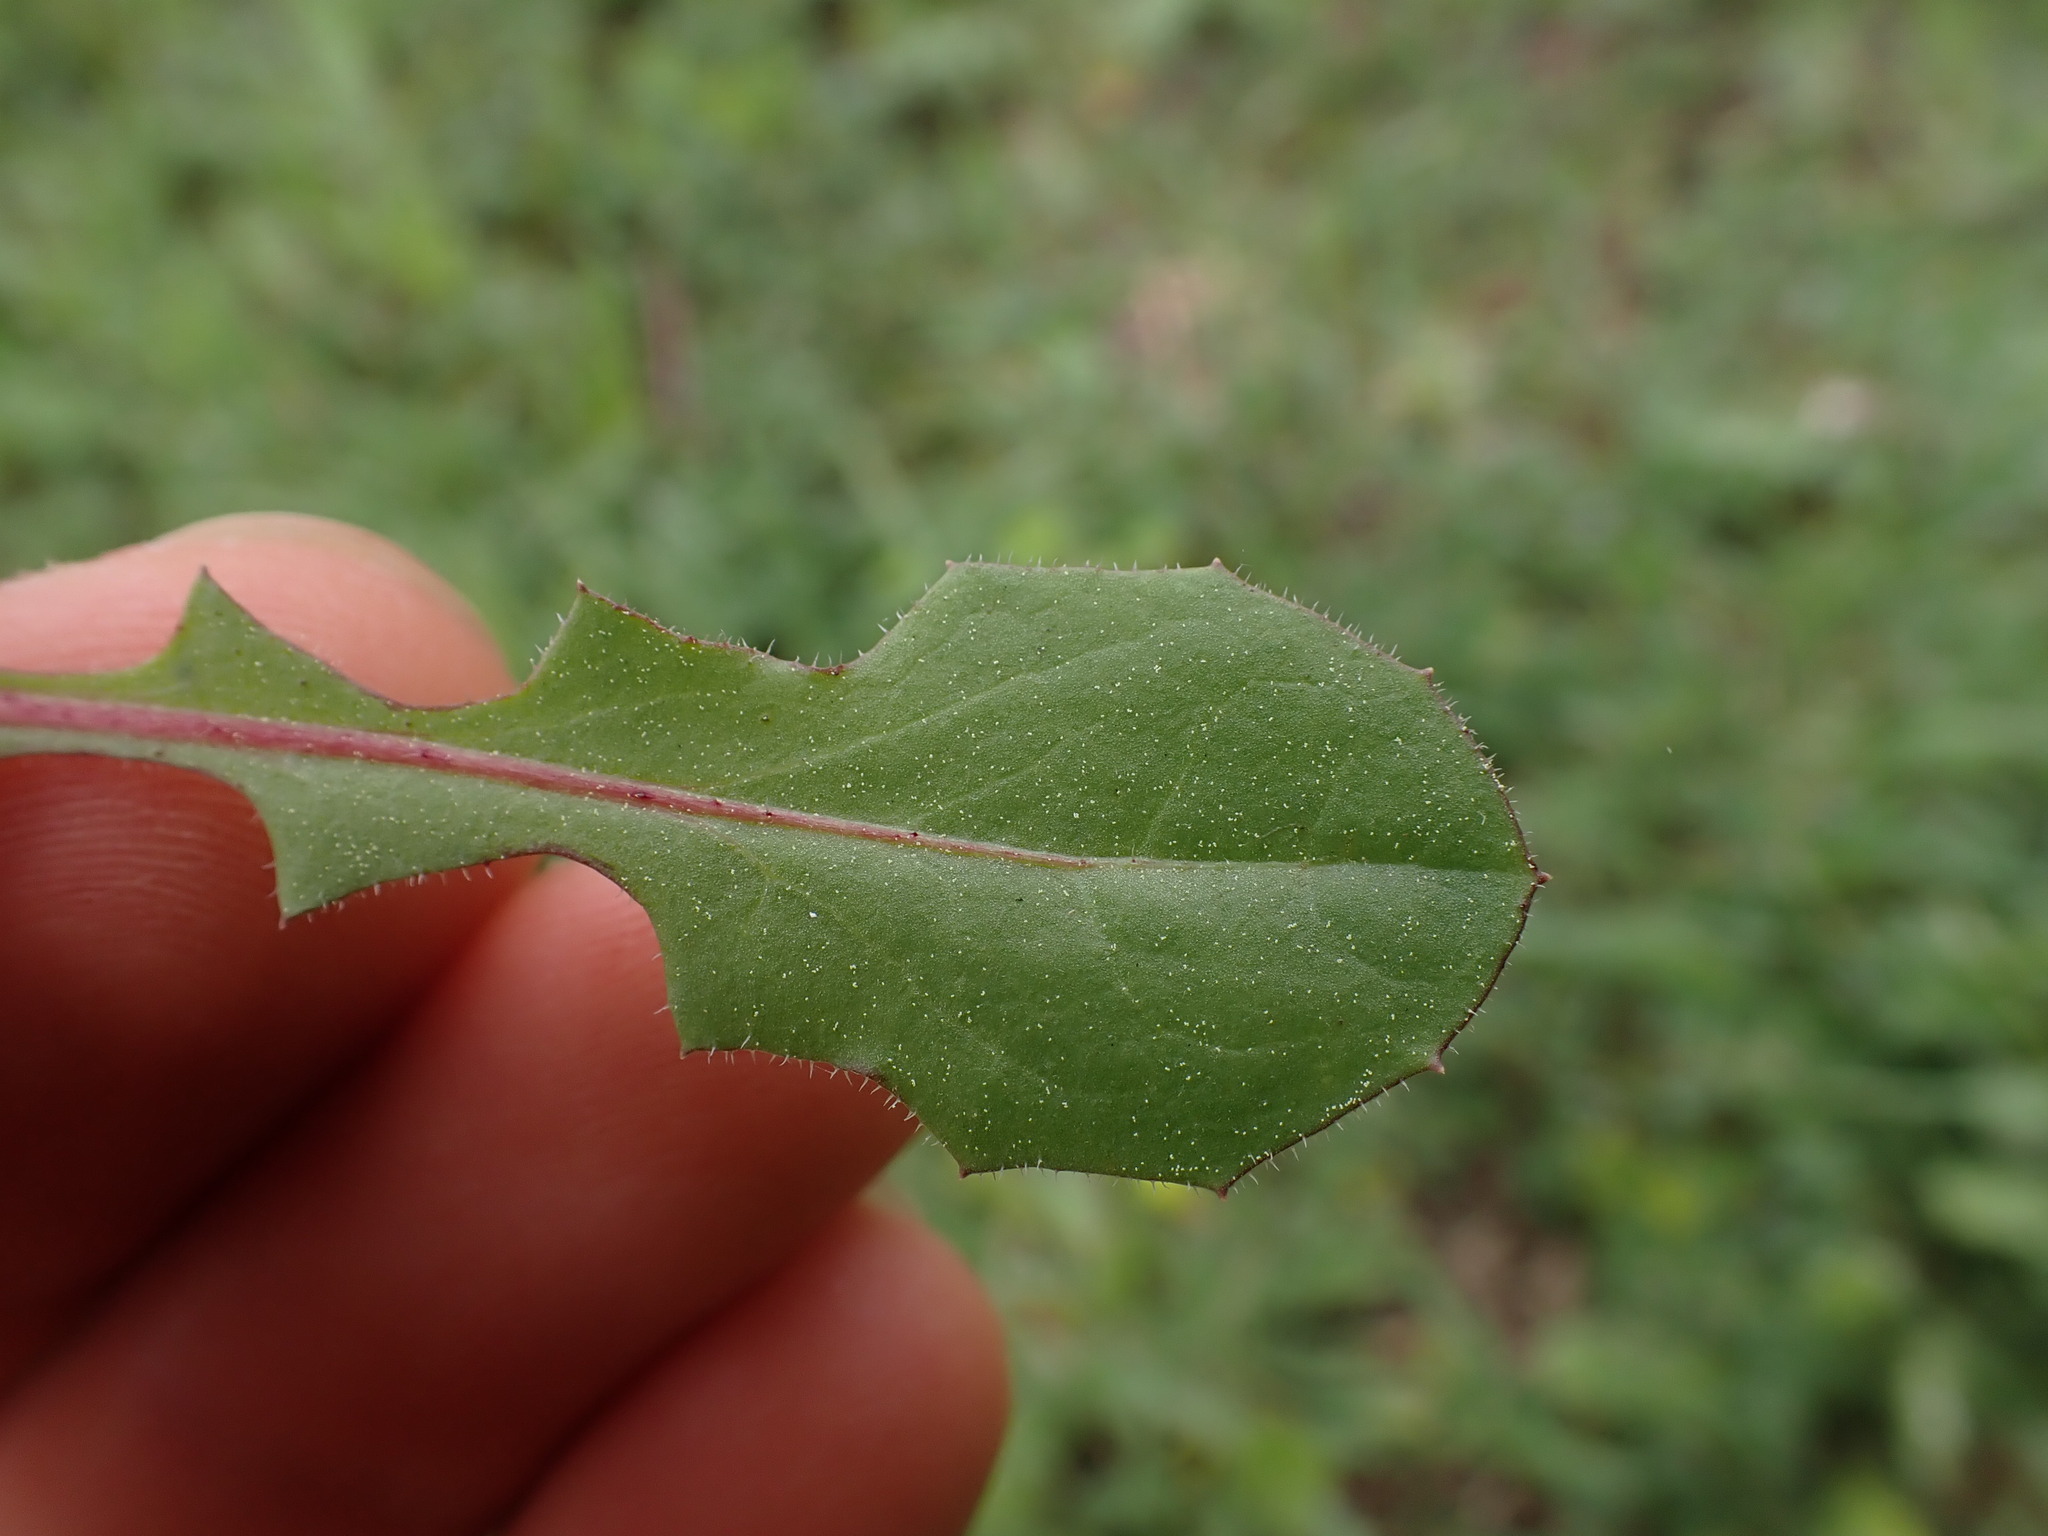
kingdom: Plantae
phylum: Tracheophyta
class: Magnoliopsida
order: Asterales
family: Asteraceae
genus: Crepis
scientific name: Crepis foetida
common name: Stinking hawk's-beard
